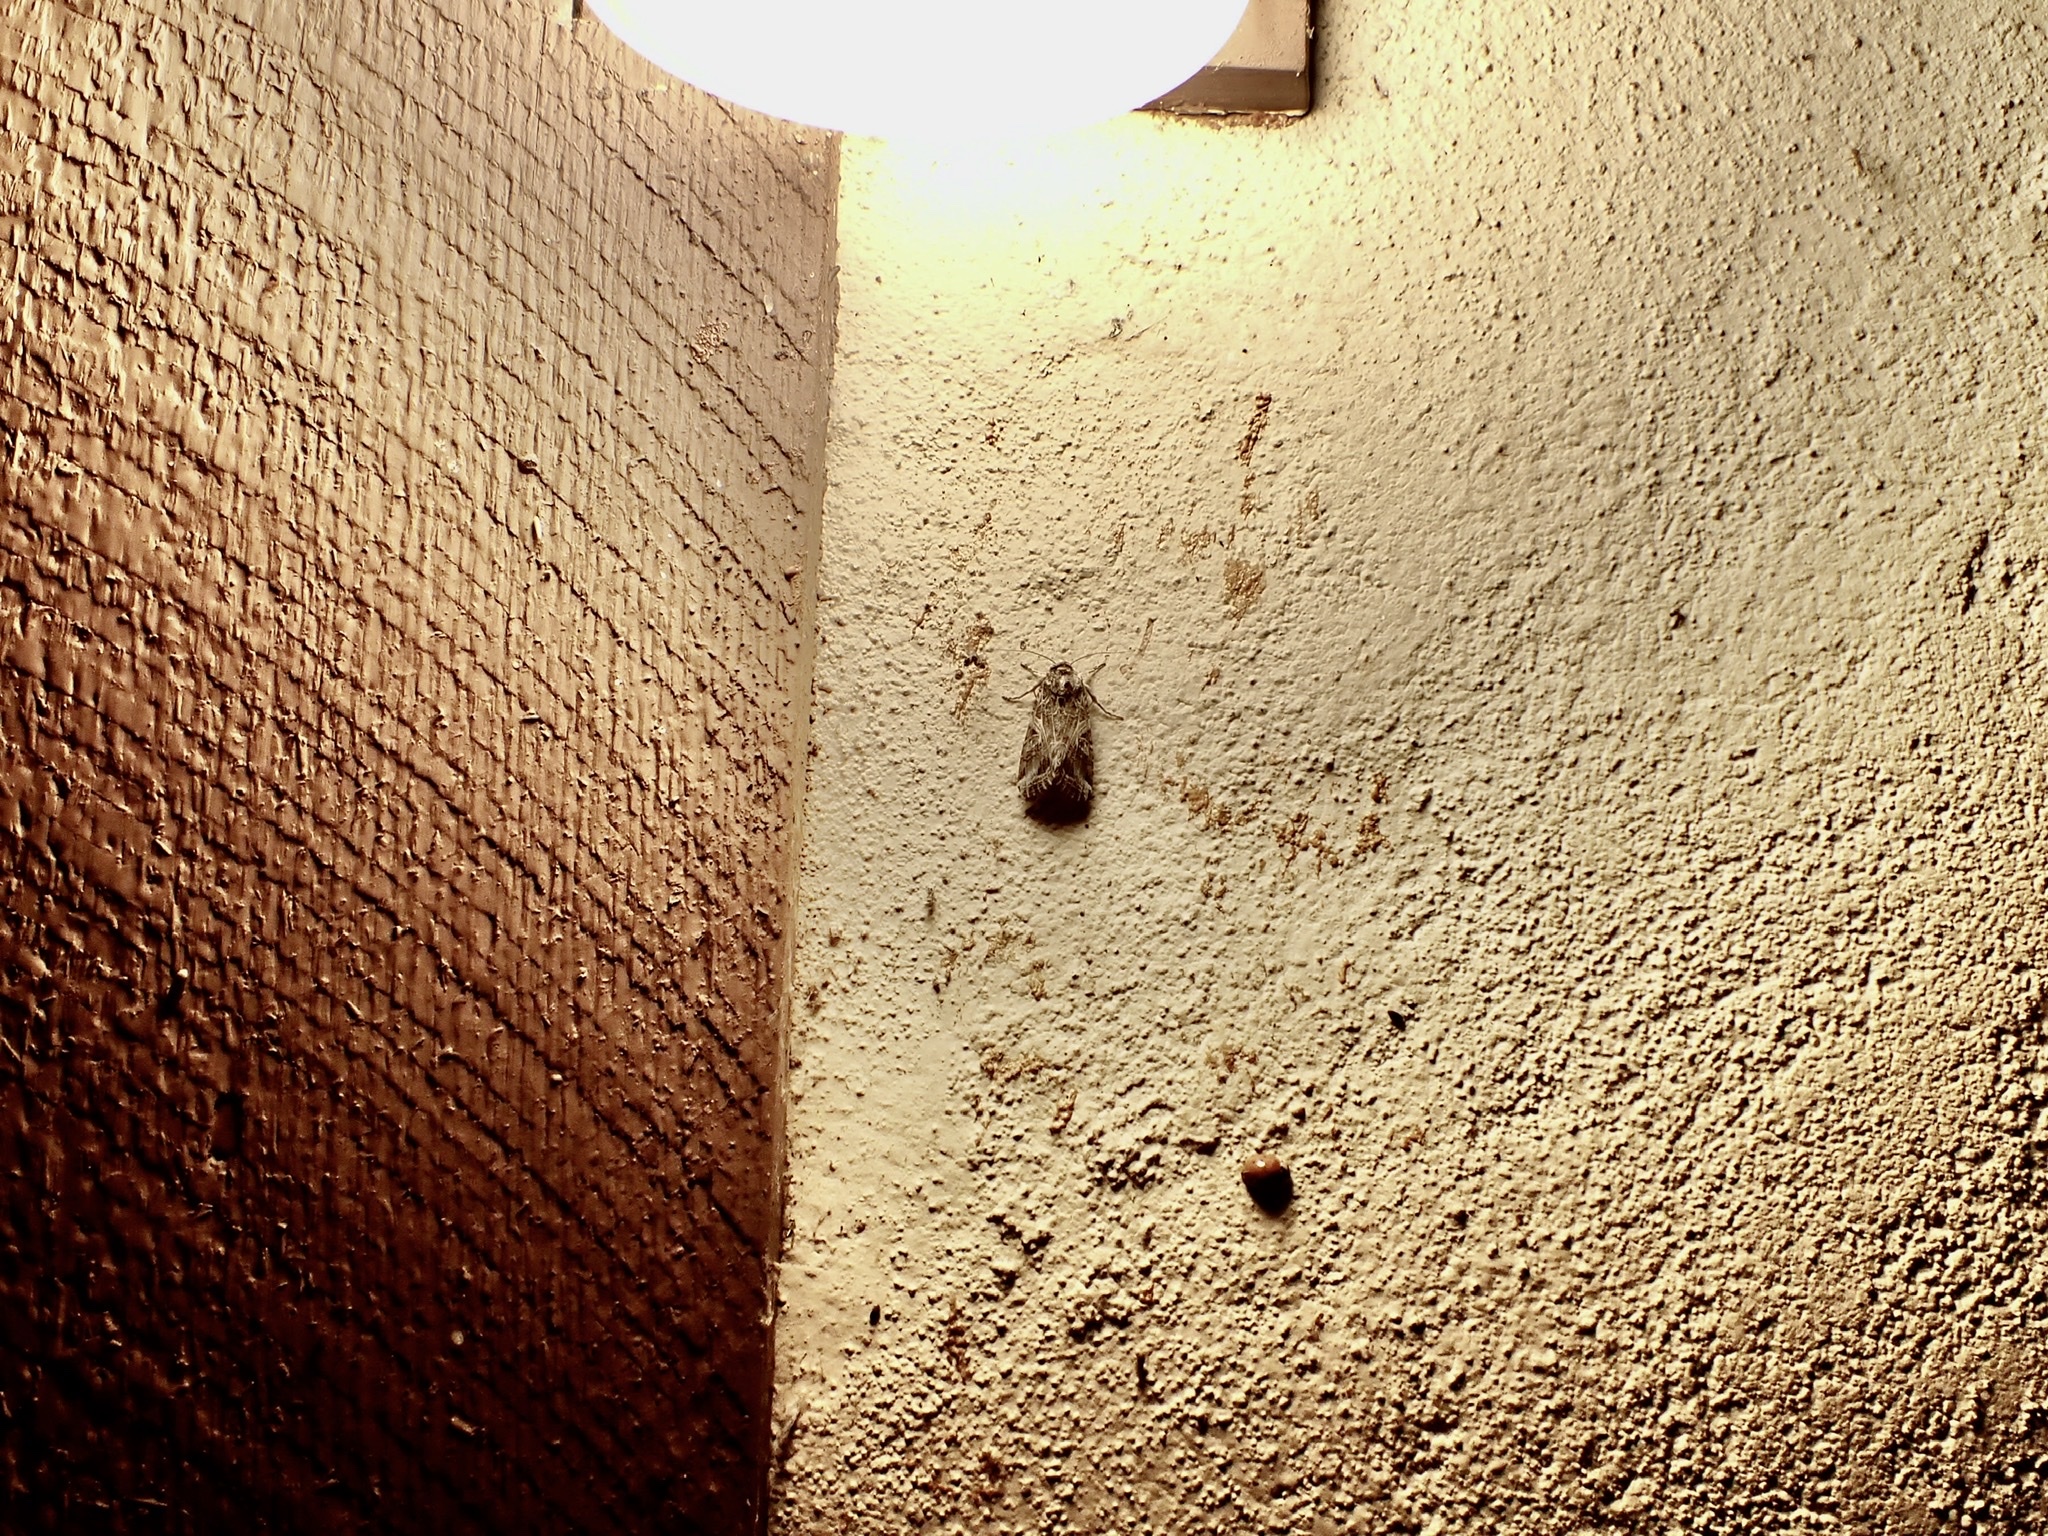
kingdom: Animalia
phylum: Arthropoda
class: Insecta
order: Lepidoptera
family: Noctuidae
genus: Spodoptera
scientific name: Spodoptera ornithogalli
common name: Yellow-striped armyworm
